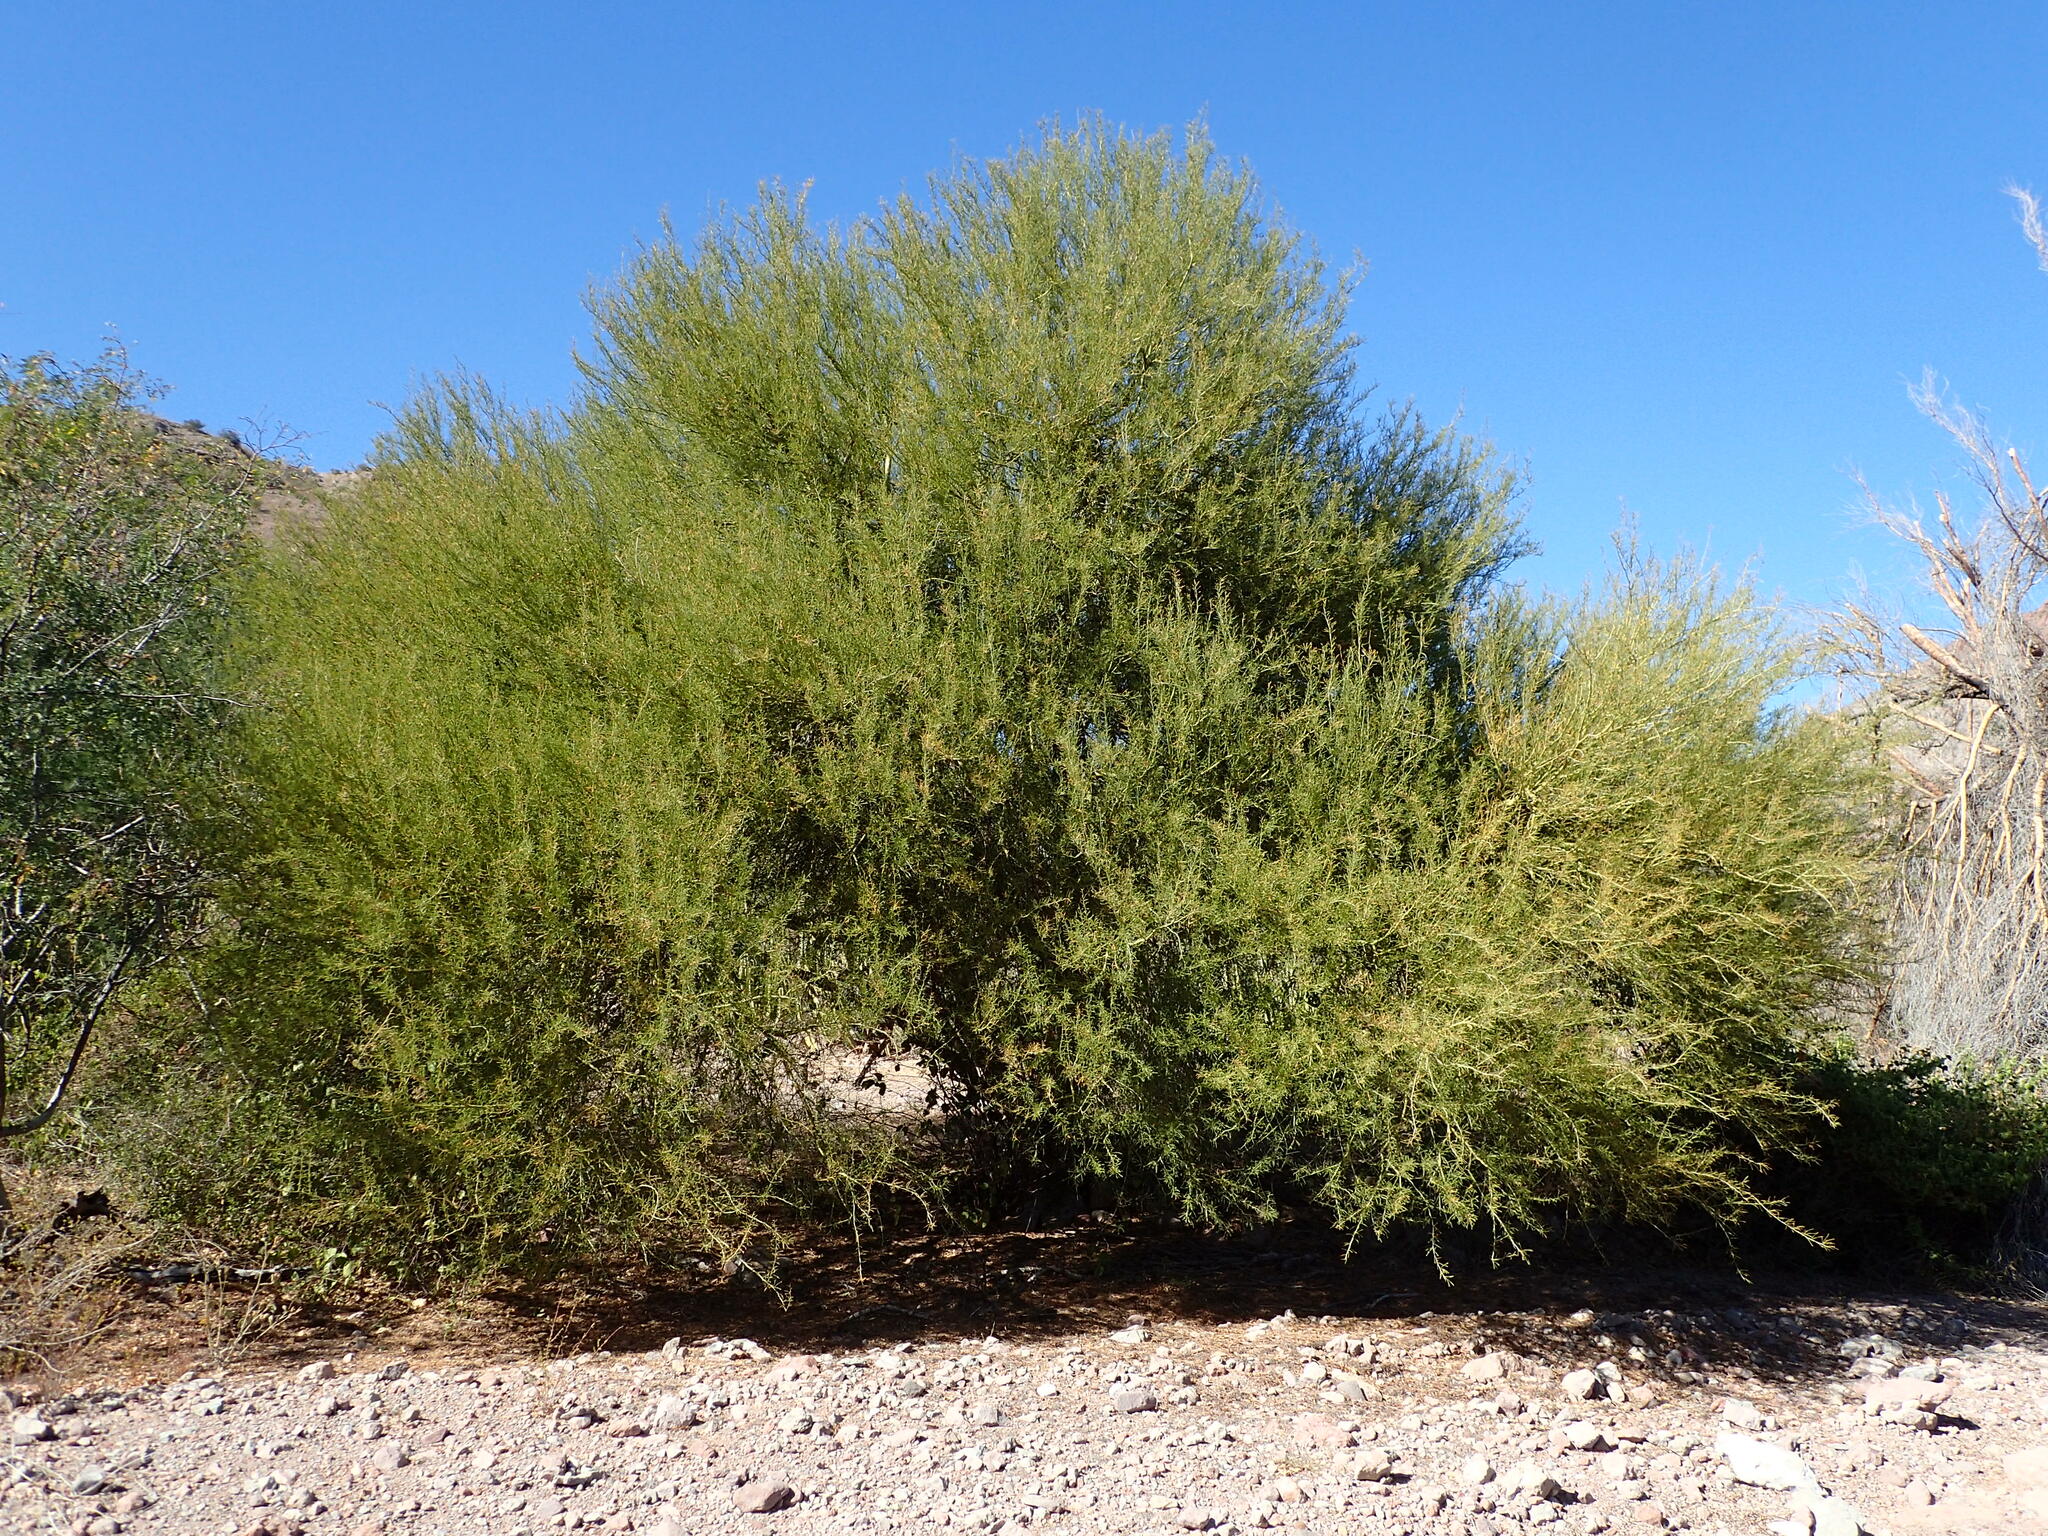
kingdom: Plantae
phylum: Tracheophyta
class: Magnoliopsida
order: Fabales
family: Fabaceae
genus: Parkinsonia
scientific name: Parkinsonia microphylla
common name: Yellow paloverde
